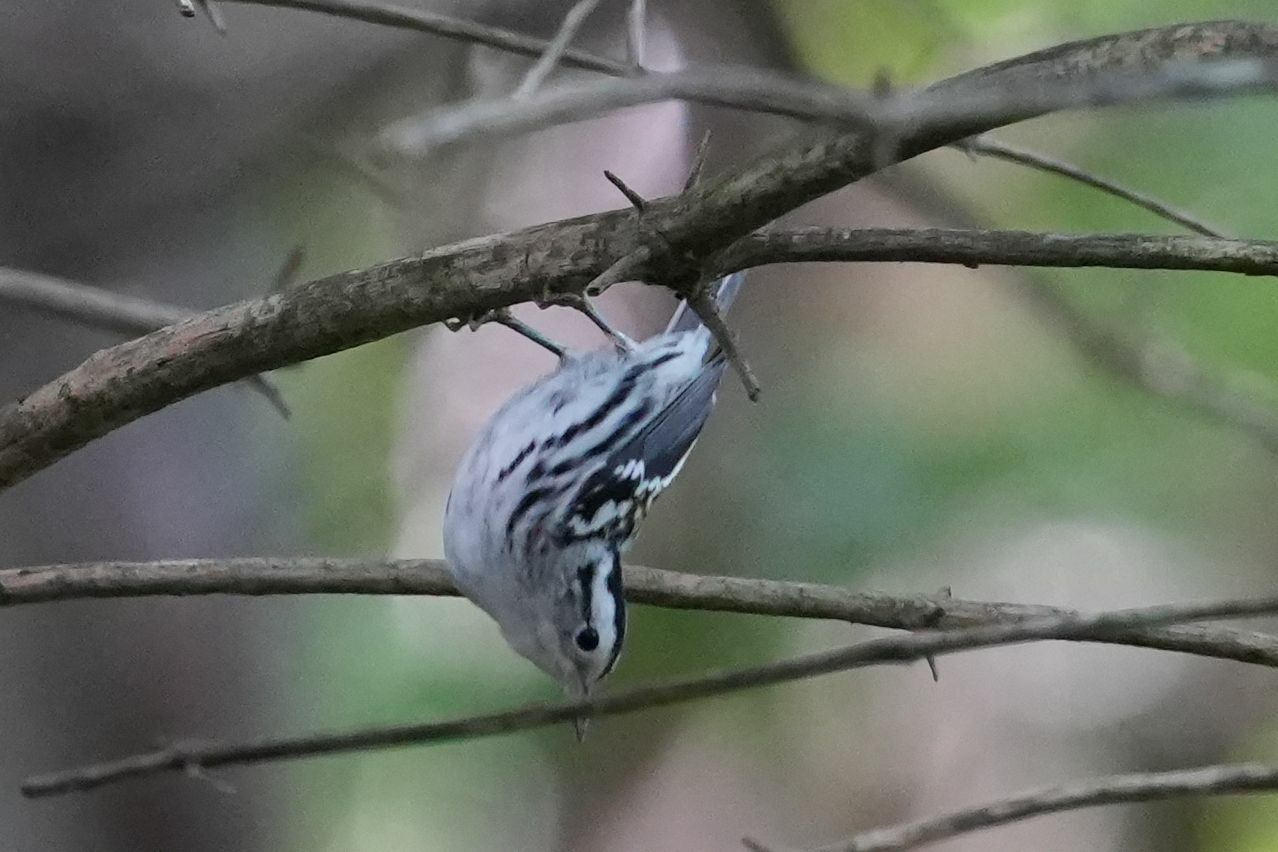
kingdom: Animalia
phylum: Chordata
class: Aves
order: Passeriformes
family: Parulidae
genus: Mniotilta
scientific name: Mniotilta varia
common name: Black-and-white warbler
